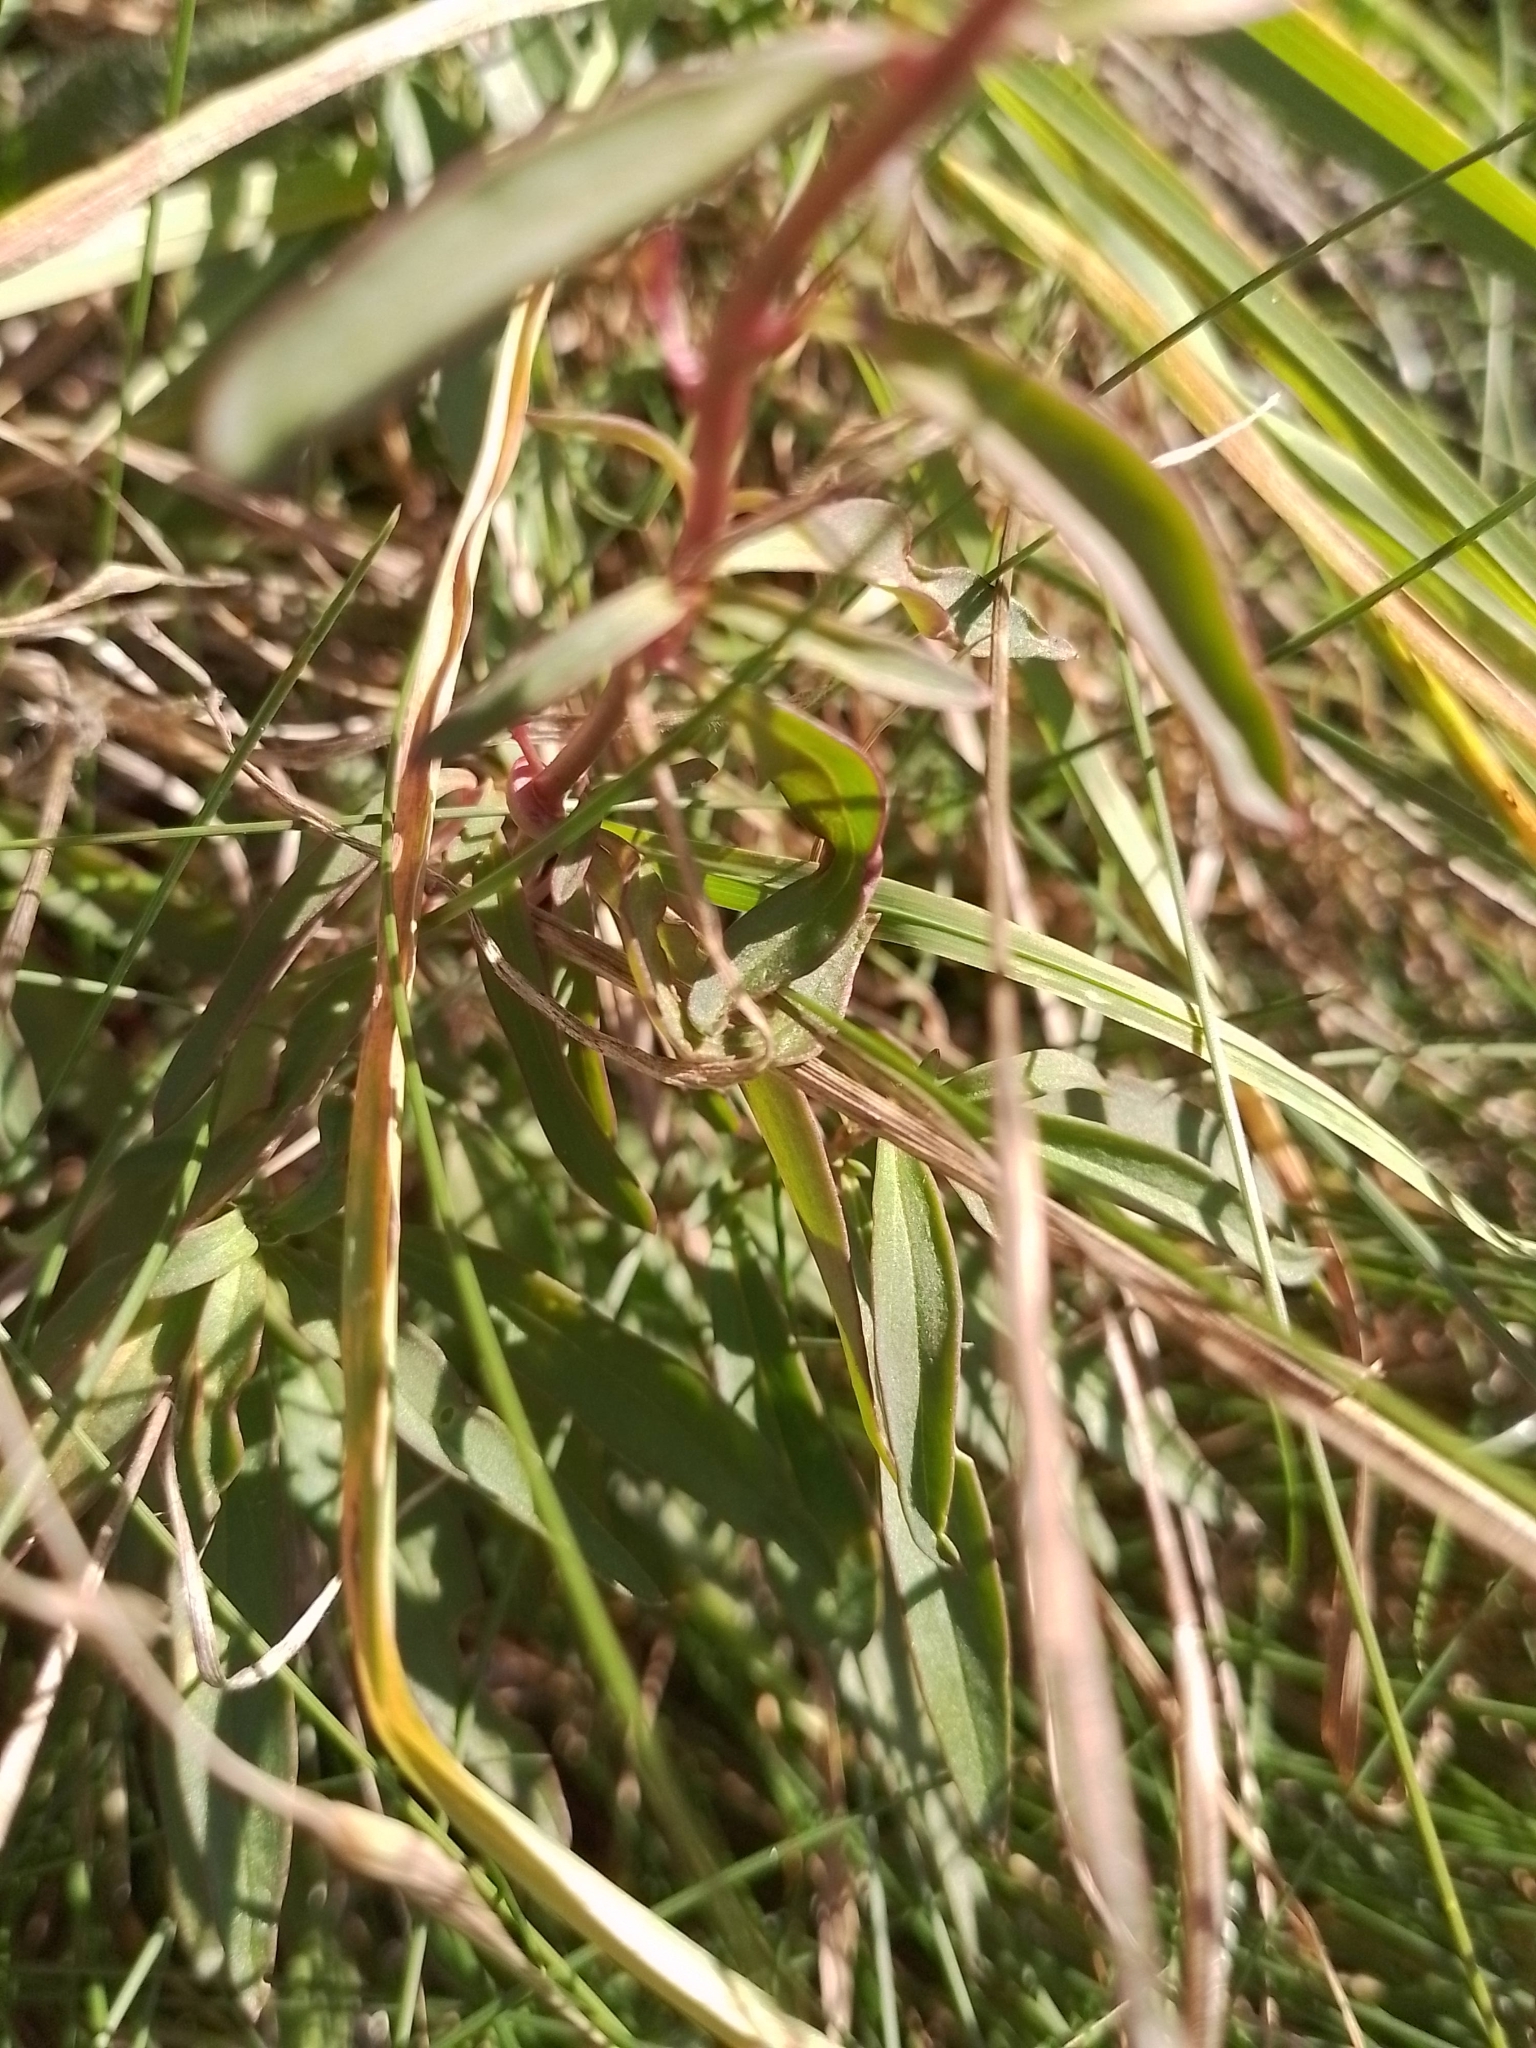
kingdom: Plantae
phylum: Tracheophyta
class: Magnoliopsida
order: Lamiales
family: Plantaginaceae
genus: Antirrhinum
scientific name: Antirrhinum majus
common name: Snapdragon
